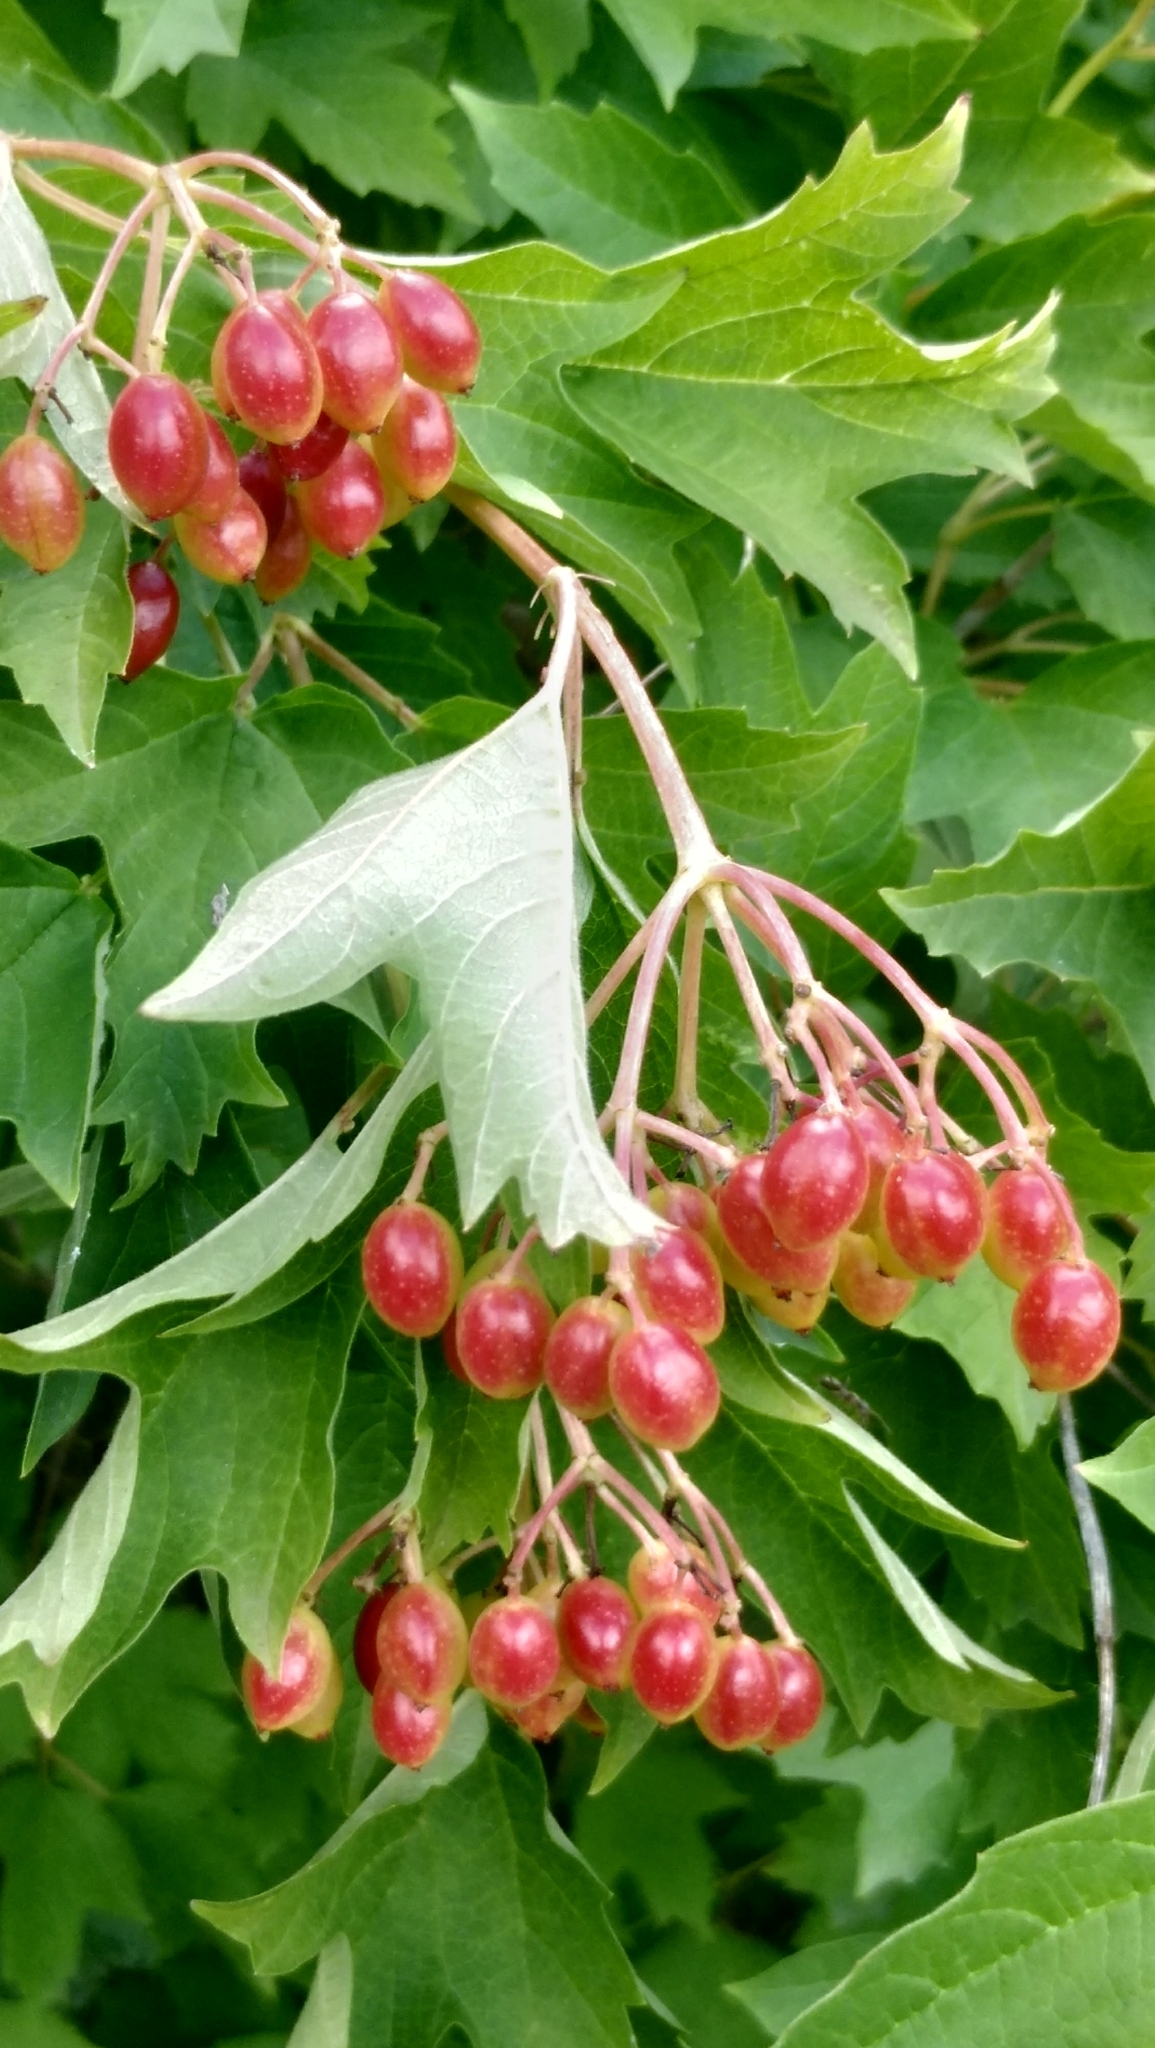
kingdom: Plantae
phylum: Tracheophyta
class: Magnoliopsida
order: Dipsacales
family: Viburnaceae
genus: Viburnum
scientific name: Viburnum opulus
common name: Guelder-rose
